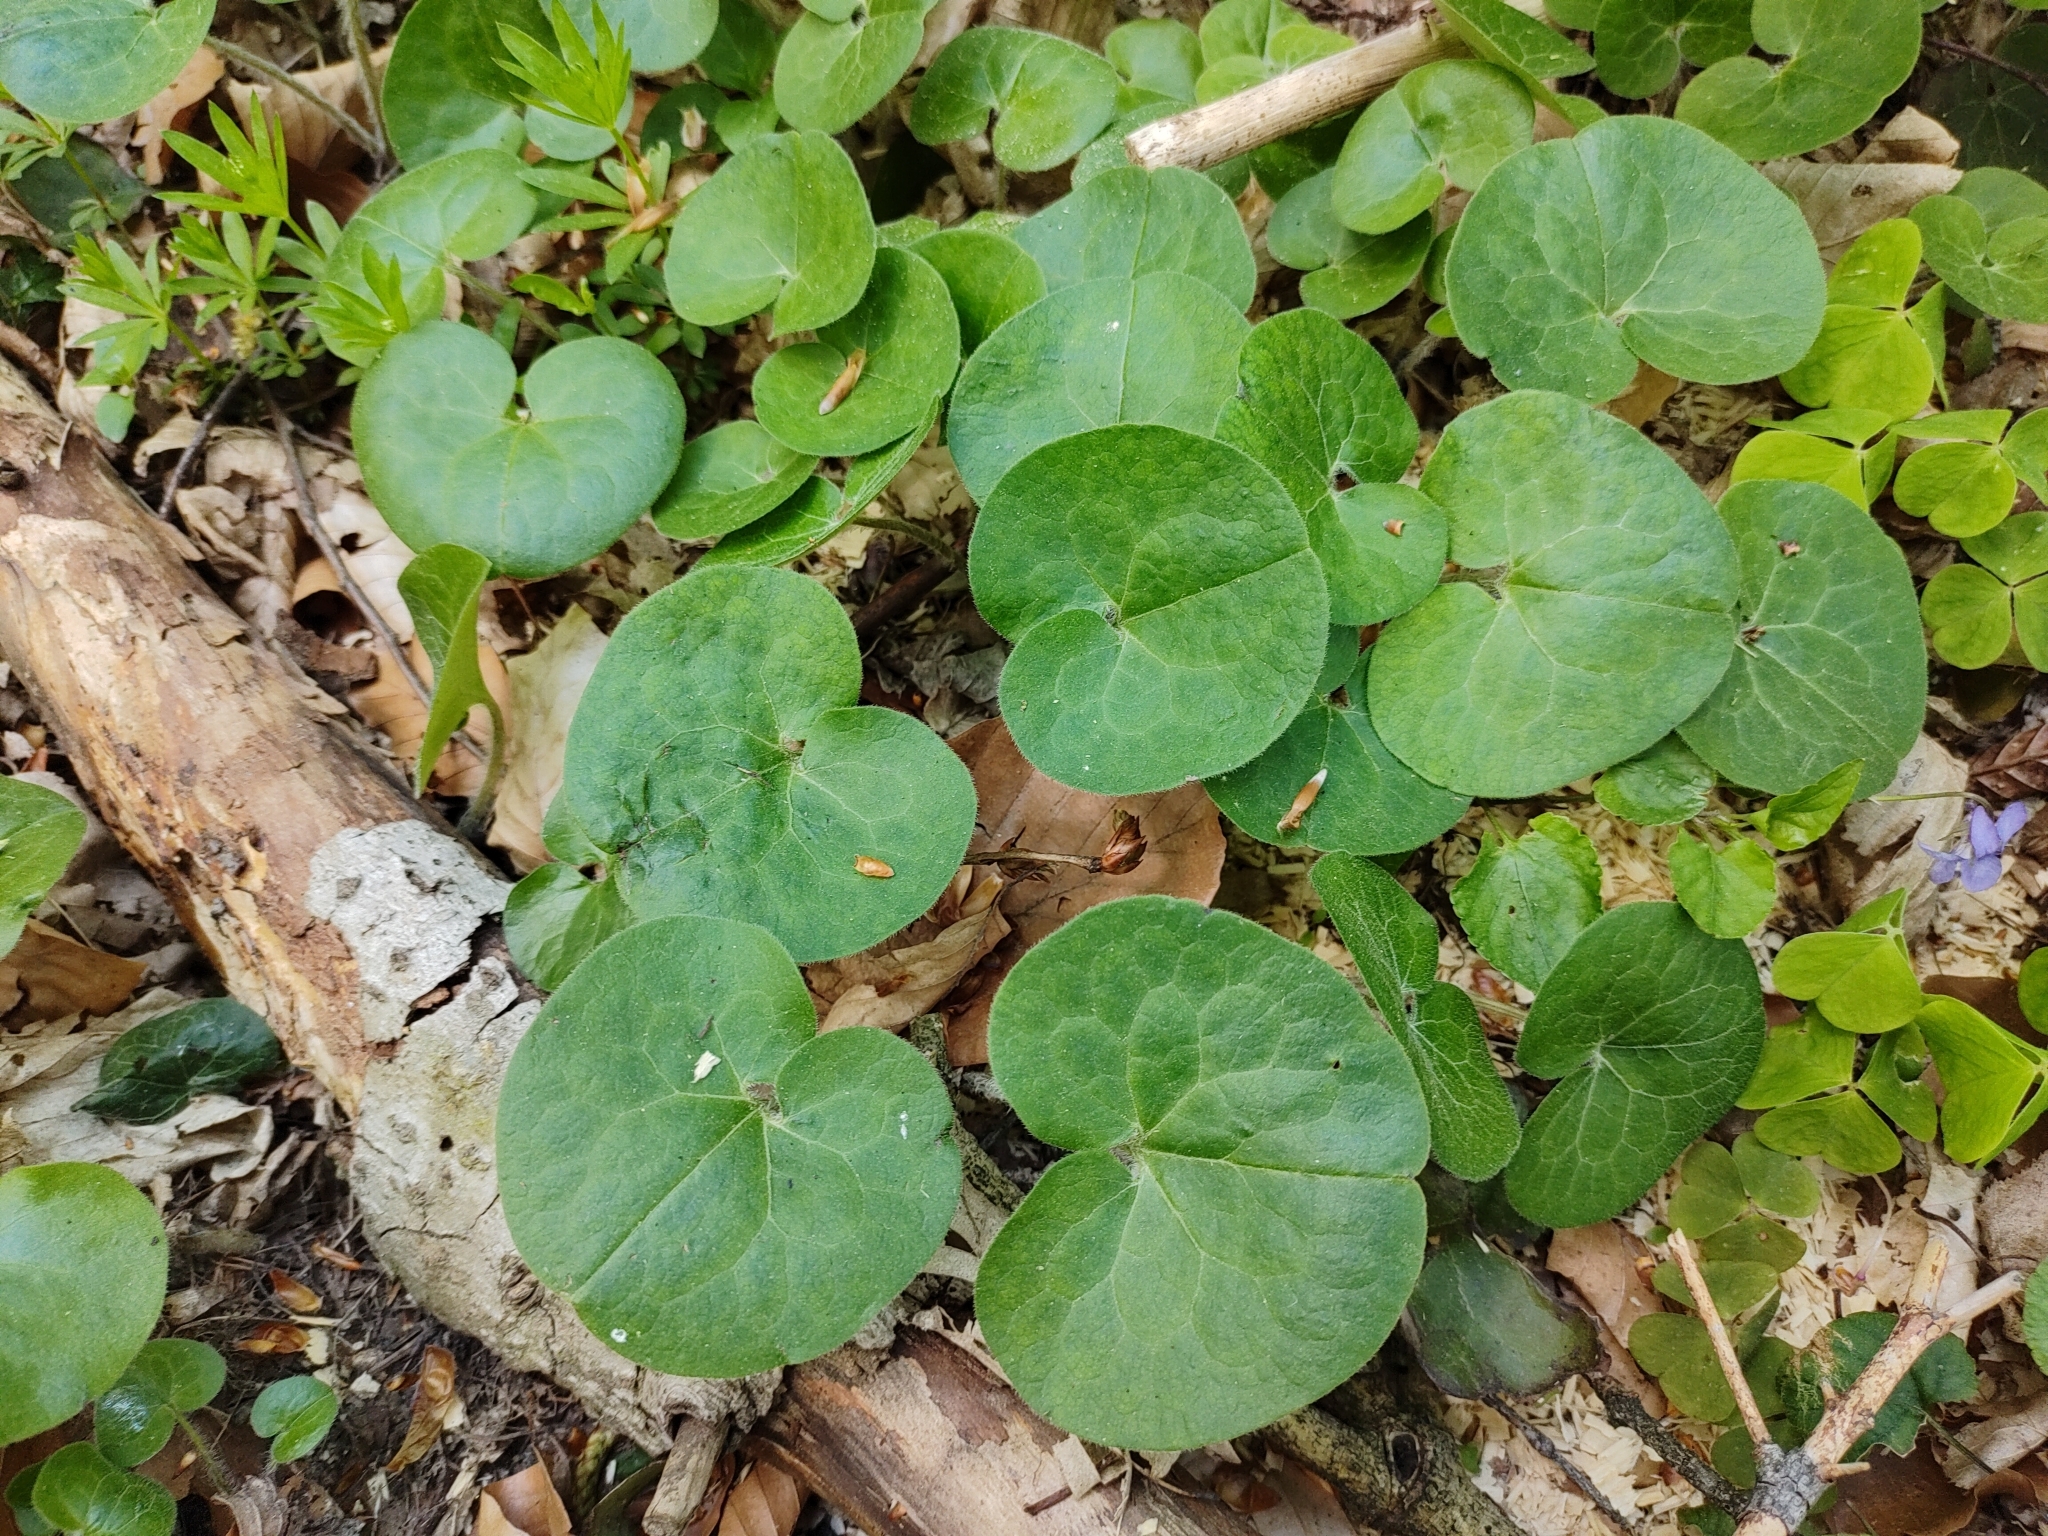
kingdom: Plantae
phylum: Tracheophyta
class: Magnoliopsida
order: Piperales
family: Aristolochiaceae
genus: Asarum
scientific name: Asarum europaeum
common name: Asarabacca
